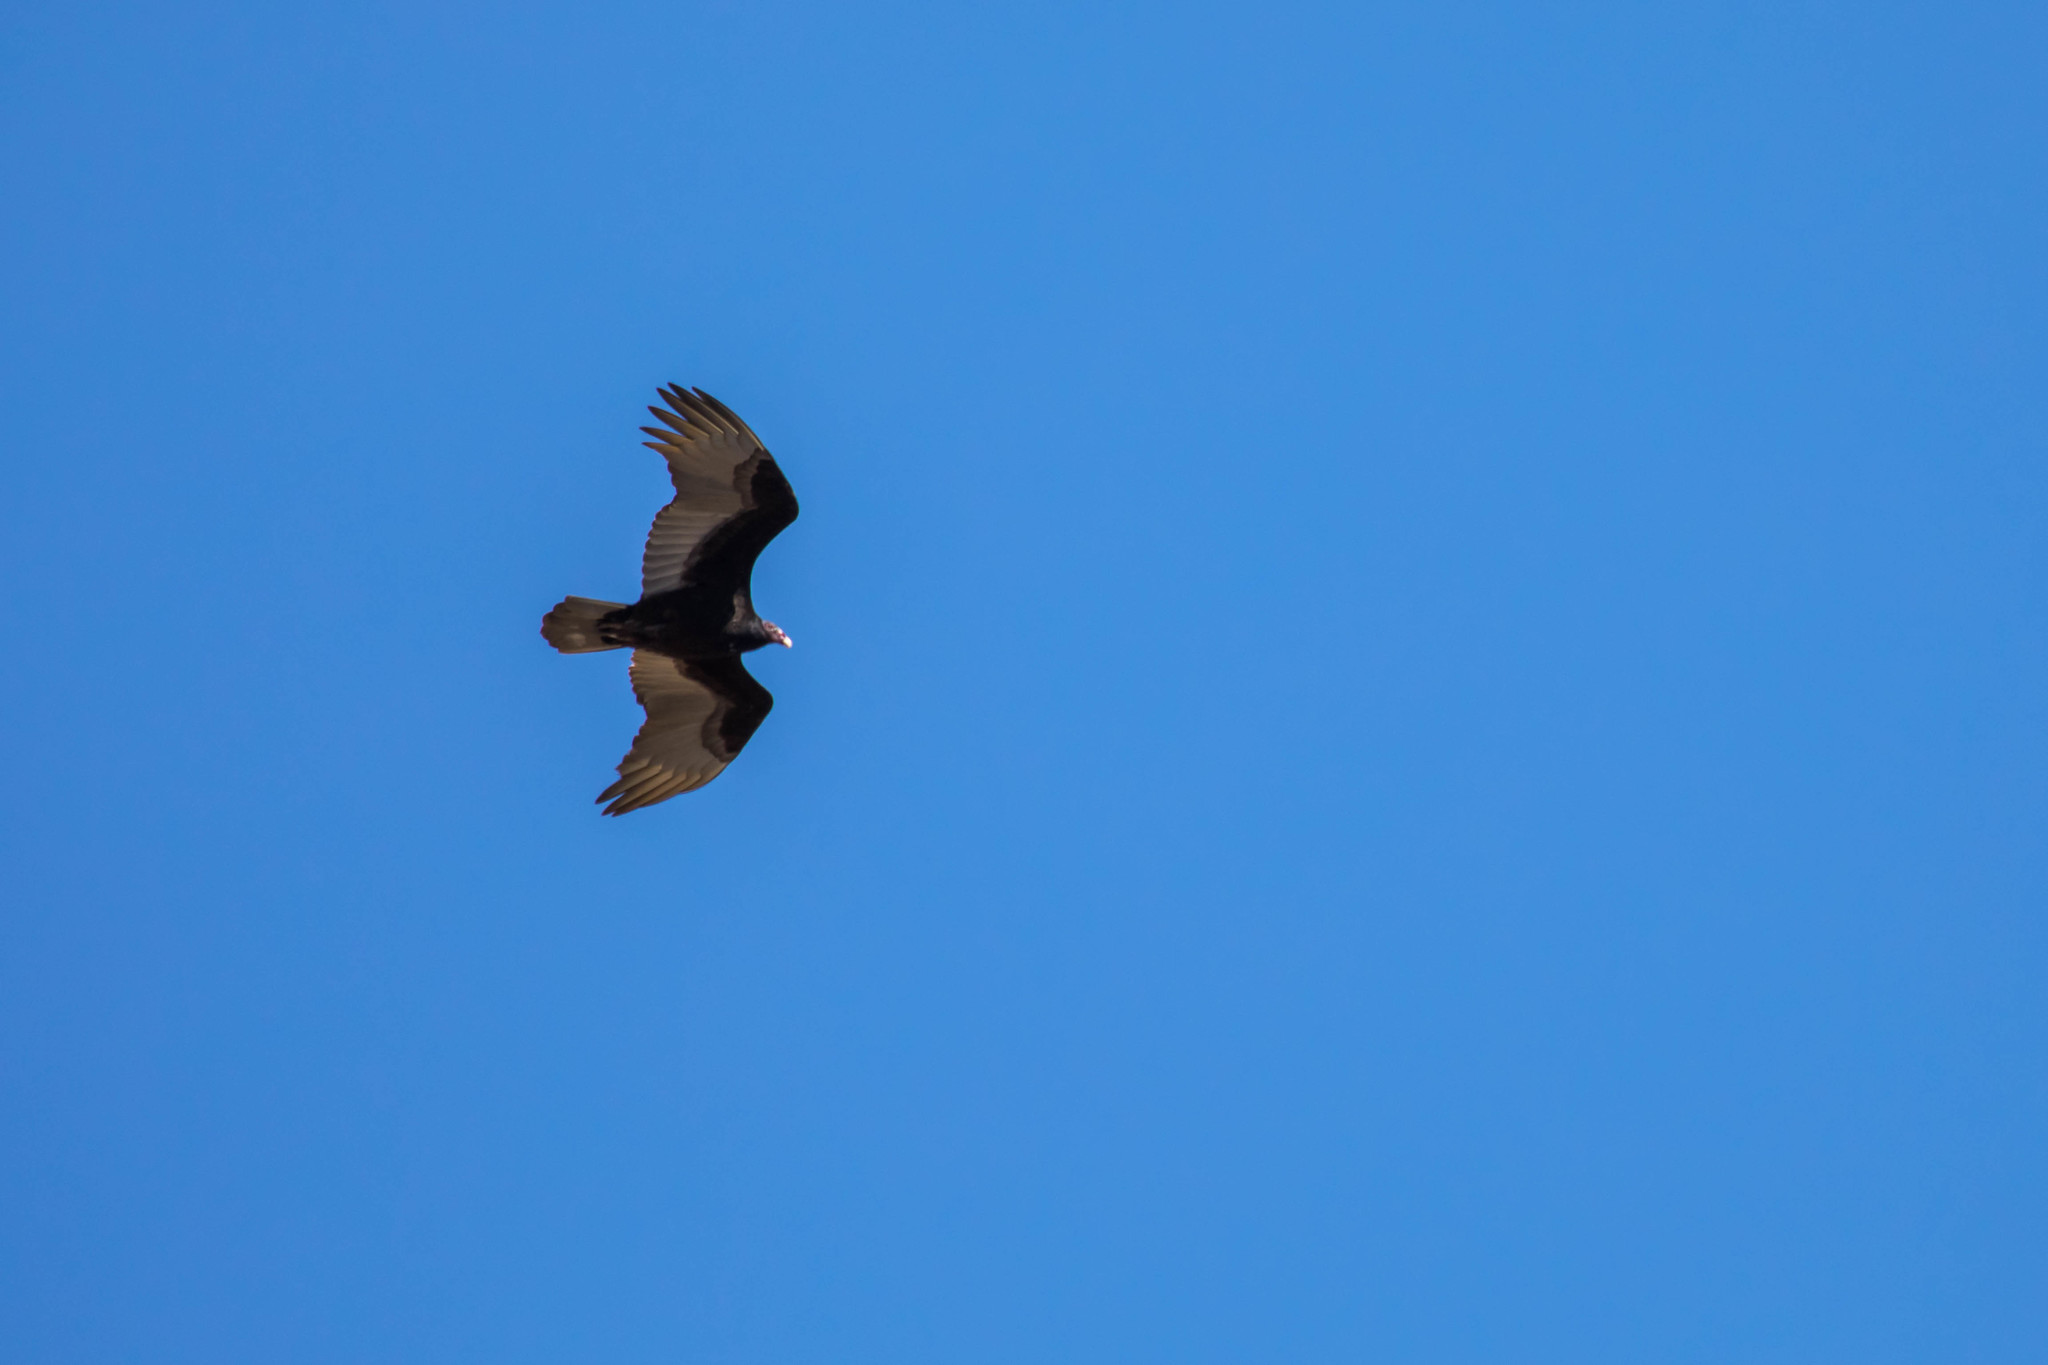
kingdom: Animalia
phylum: Chordata
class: Aves
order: Accipitriformes
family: Cathartidae
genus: Cathartes
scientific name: Cathartes aura
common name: Turkey vulture
